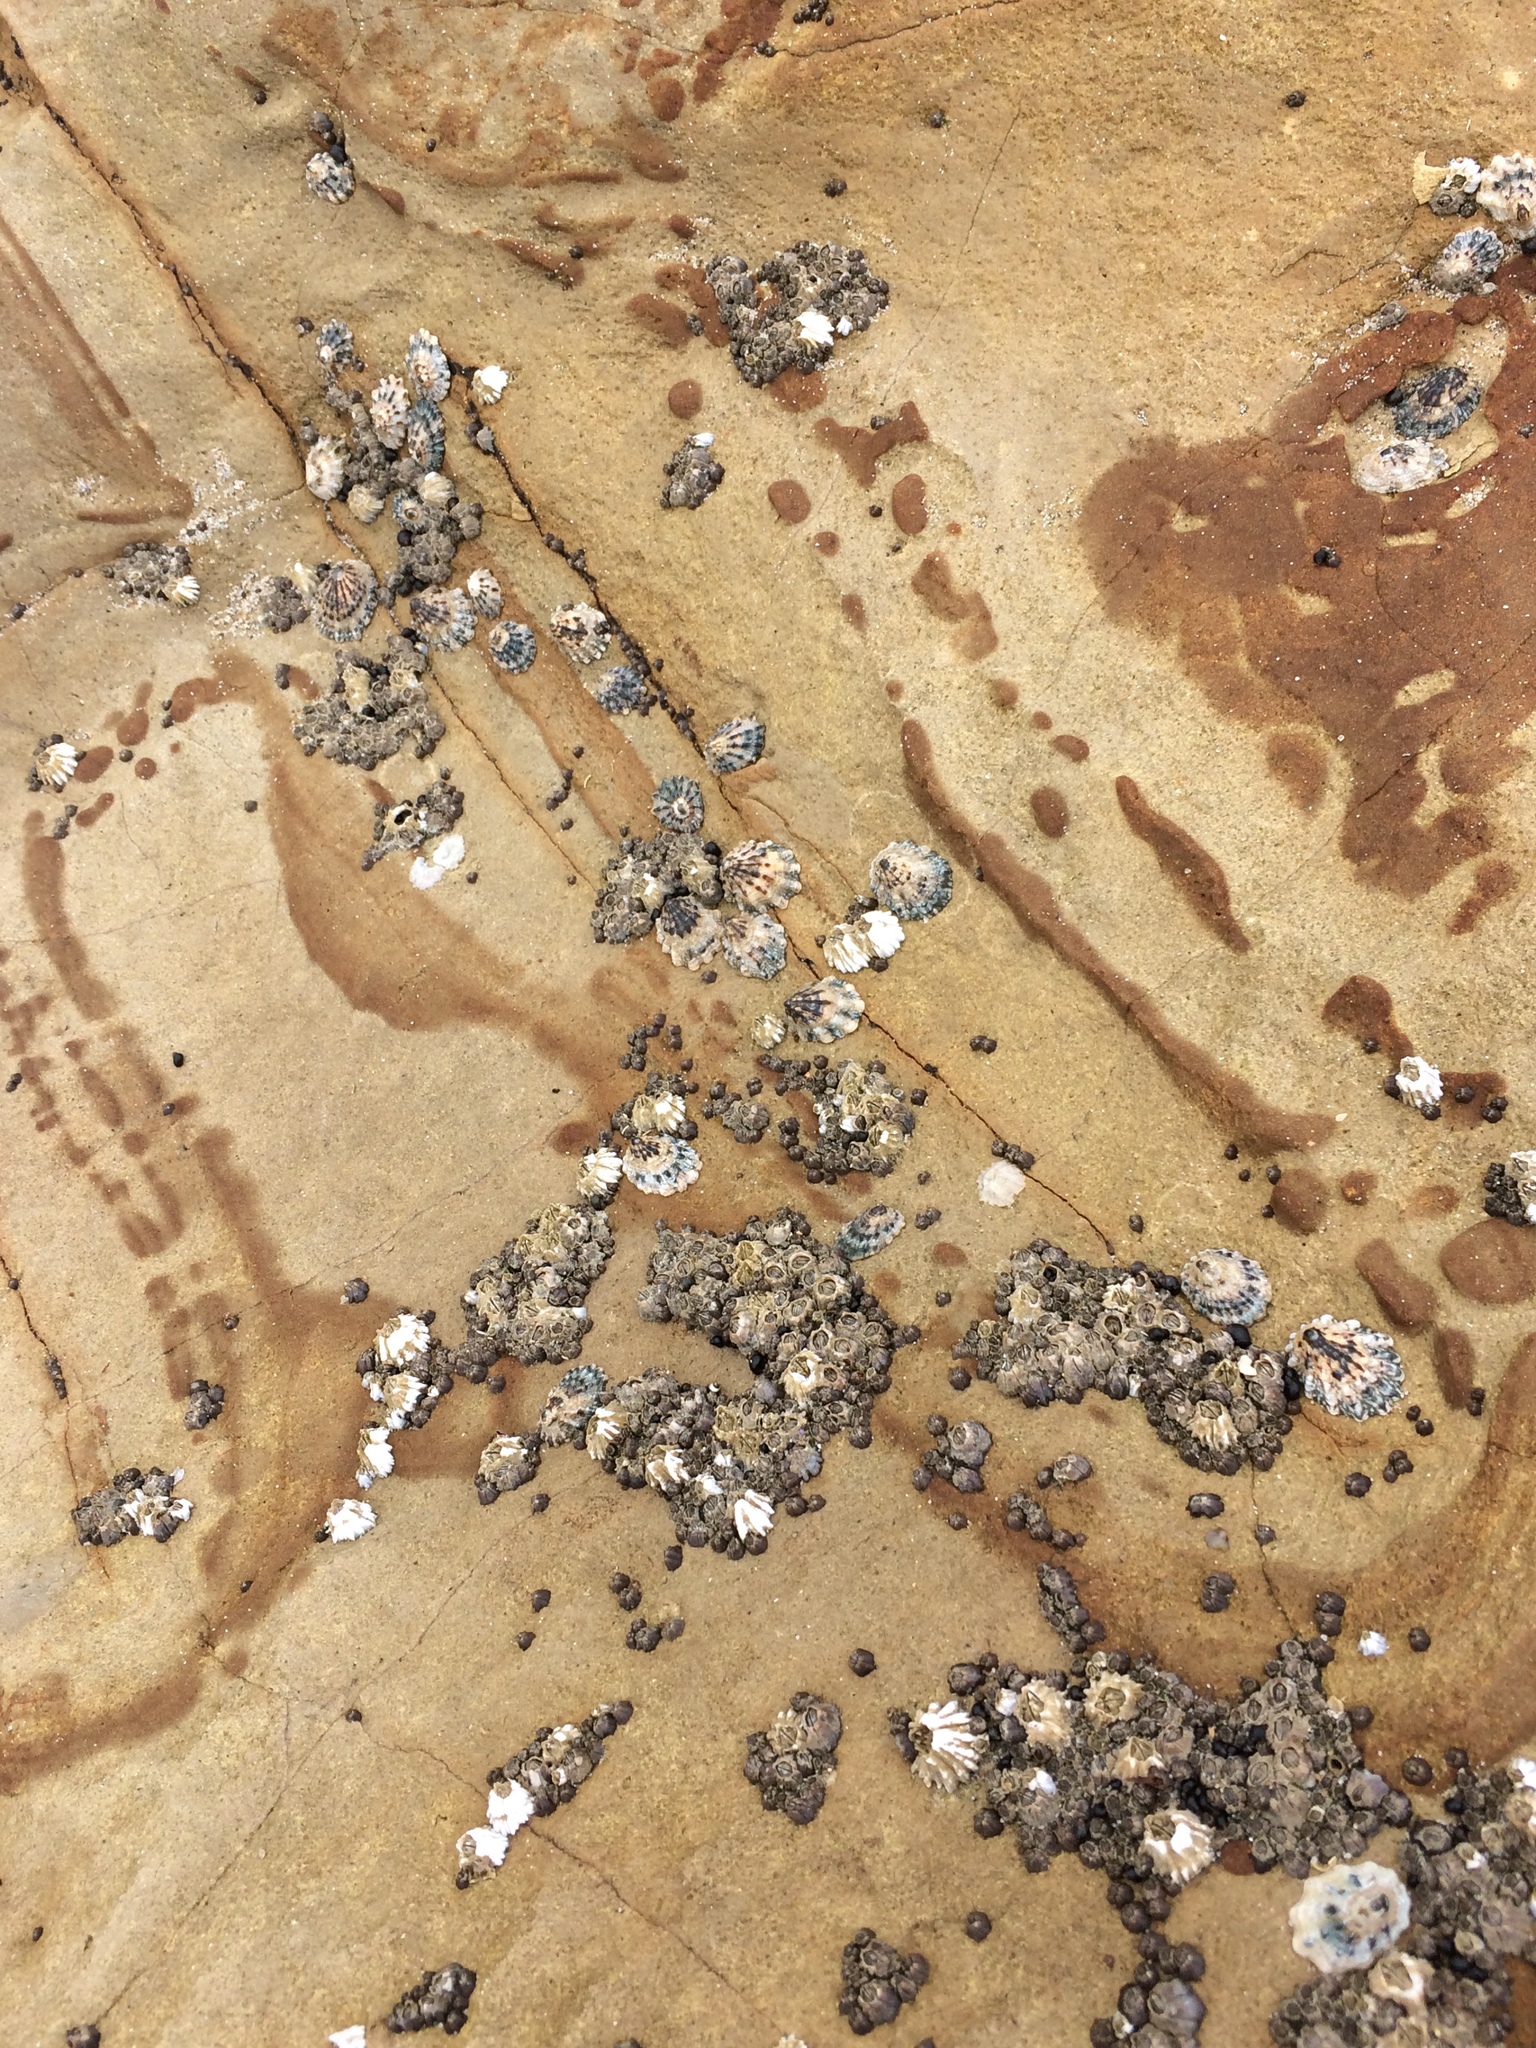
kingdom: Animalia
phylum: Arthropoda
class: Maxillopoda
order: Sessilia
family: Balanidae
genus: Balanus
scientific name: Balanus glandula
